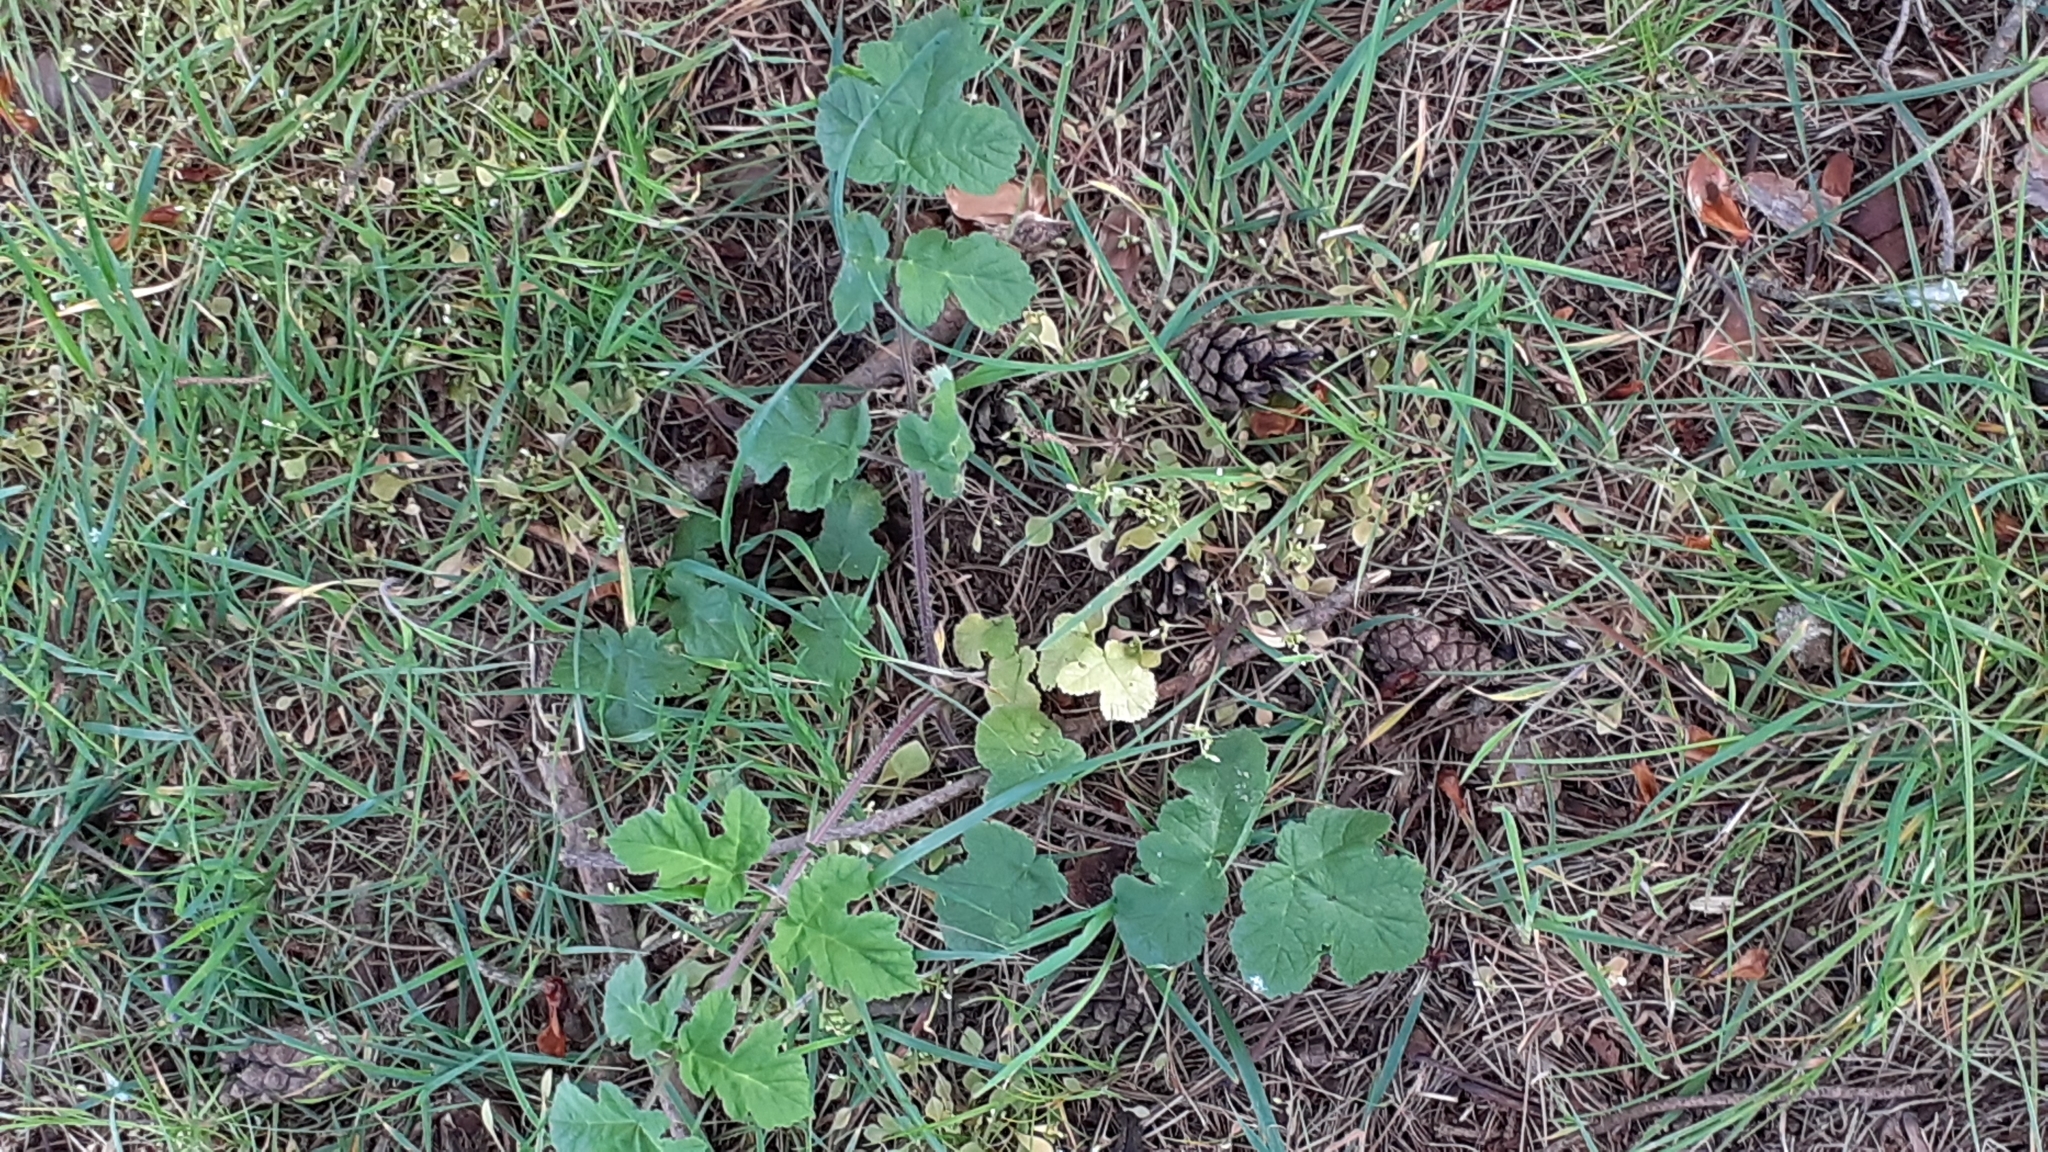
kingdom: Plantae
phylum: Tracheophyta
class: Magnoliopsida
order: Apiales
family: Apiaceae
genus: Heracleum
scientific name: Heracleum sphondylium
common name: Hogweed
